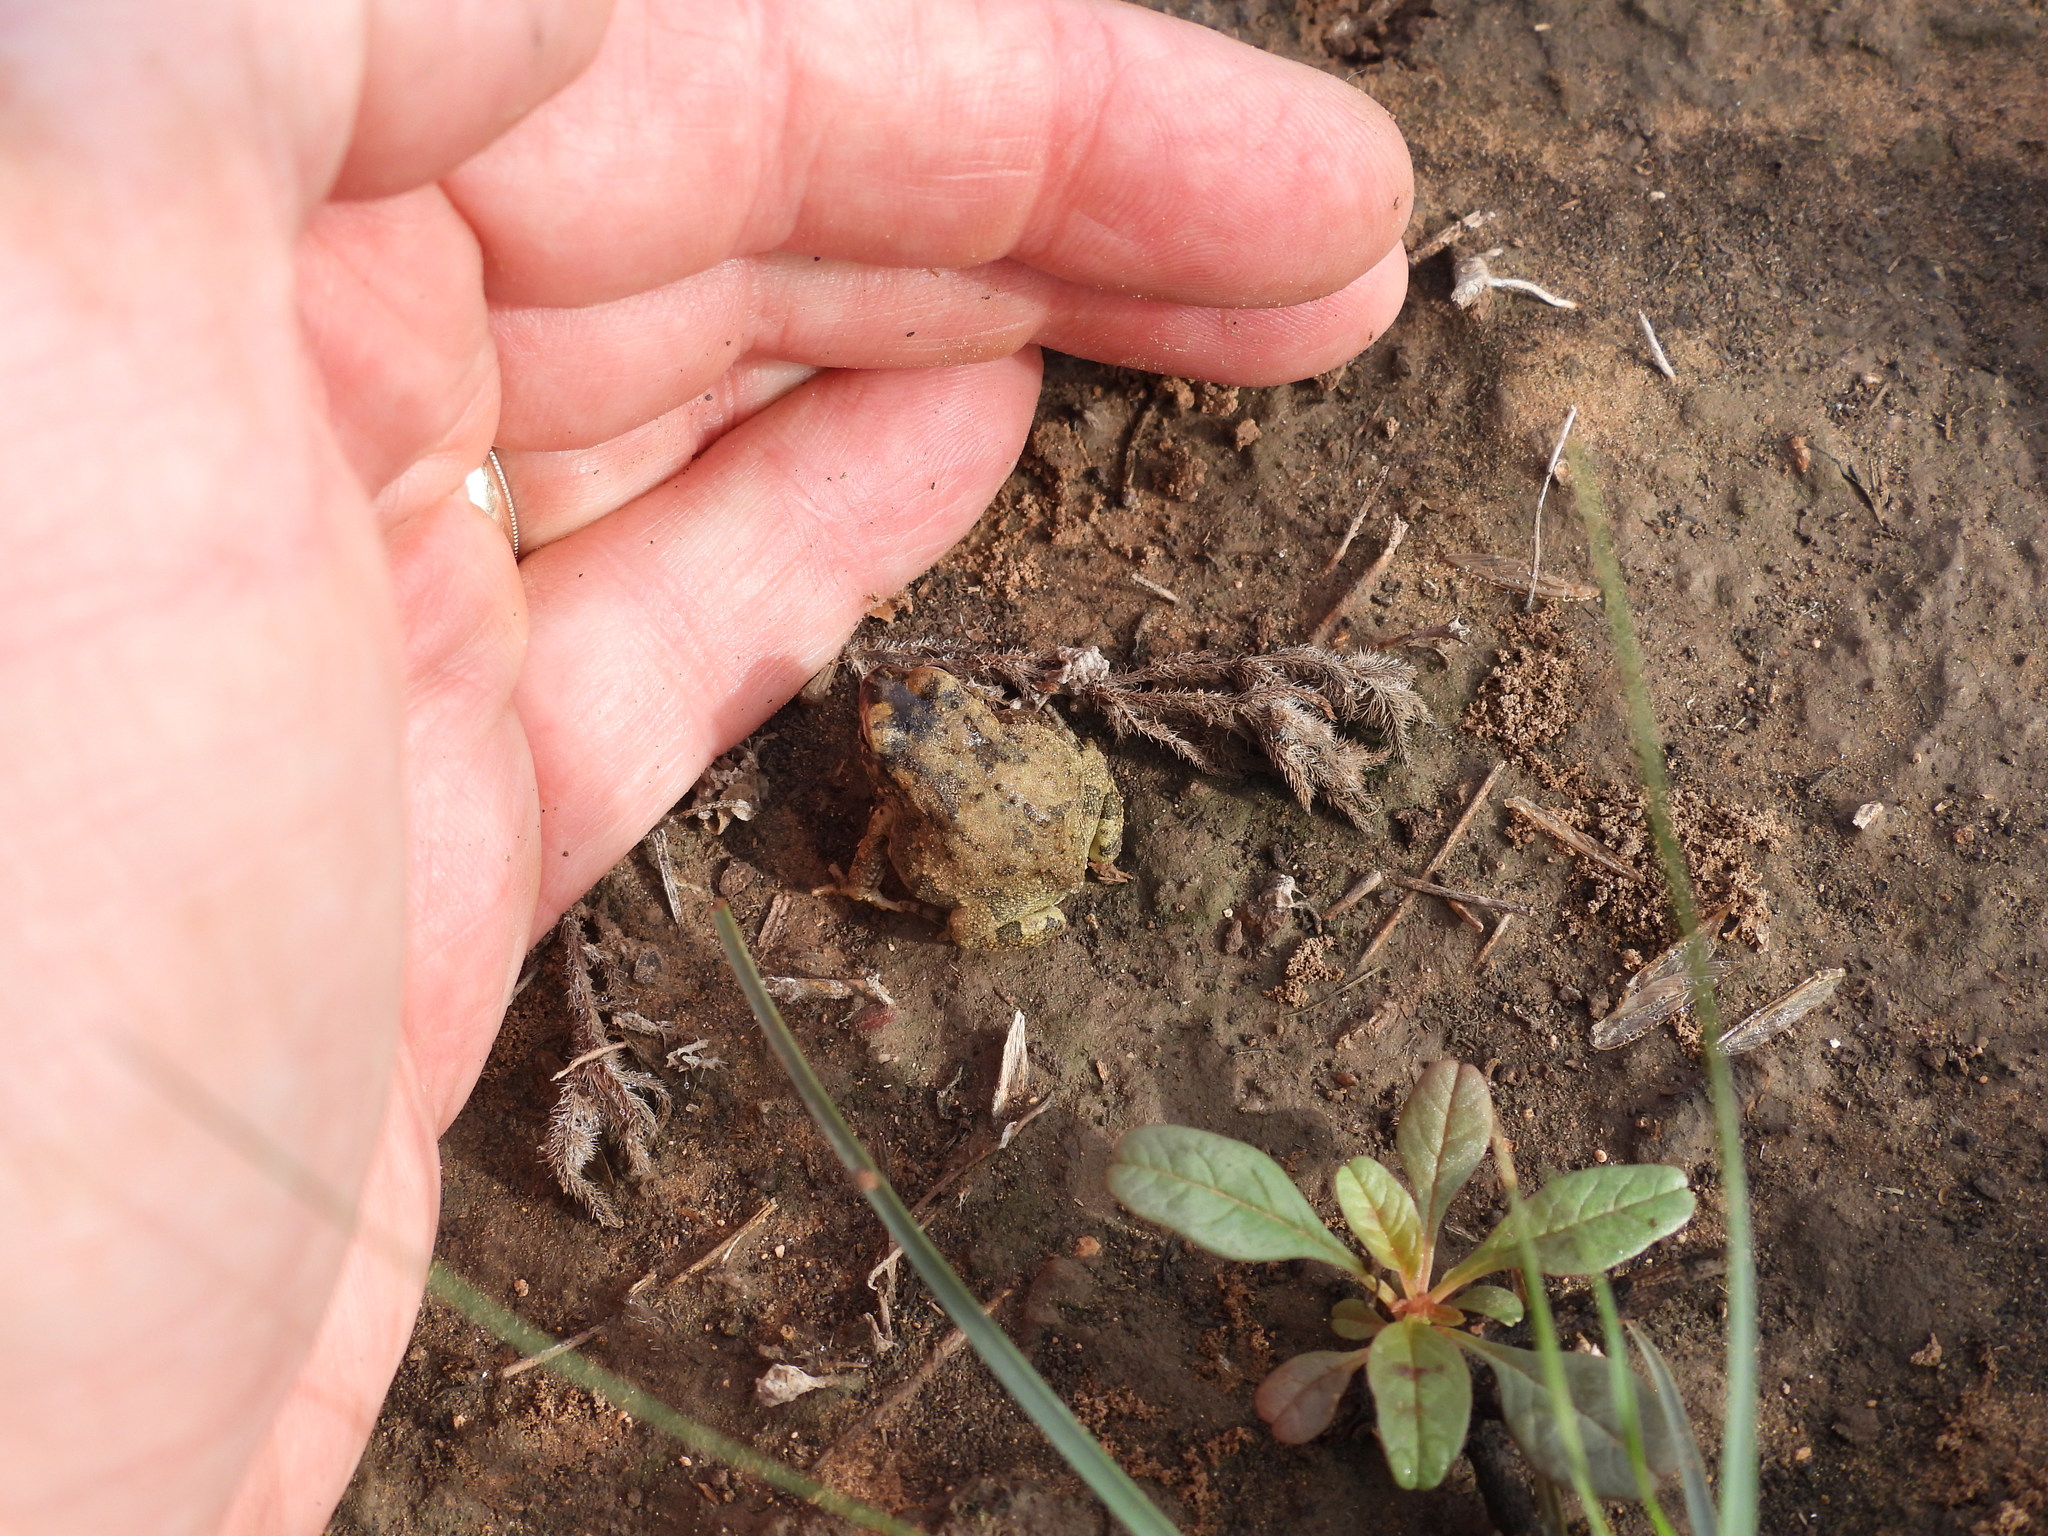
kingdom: Animalia
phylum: Chordata
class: Amphibia
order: Anura
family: Bufonidae
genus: Anaxyrus
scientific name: Anaxyrus speciosus
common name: Texas toad
